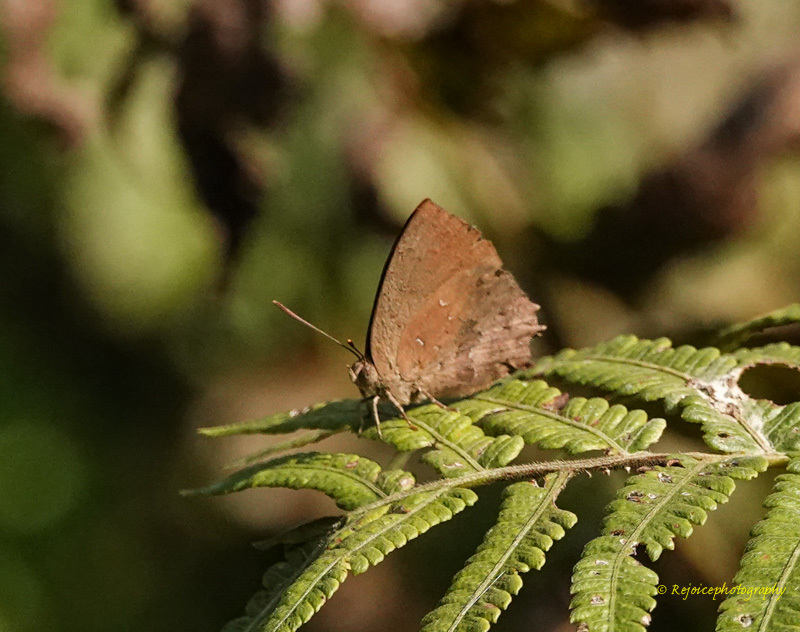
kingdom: Animalia
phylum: Arthropoda
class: Insecta
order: Lepidoptera
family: Lycaenidae
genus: Surendra
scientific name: Surendra quercetorum
